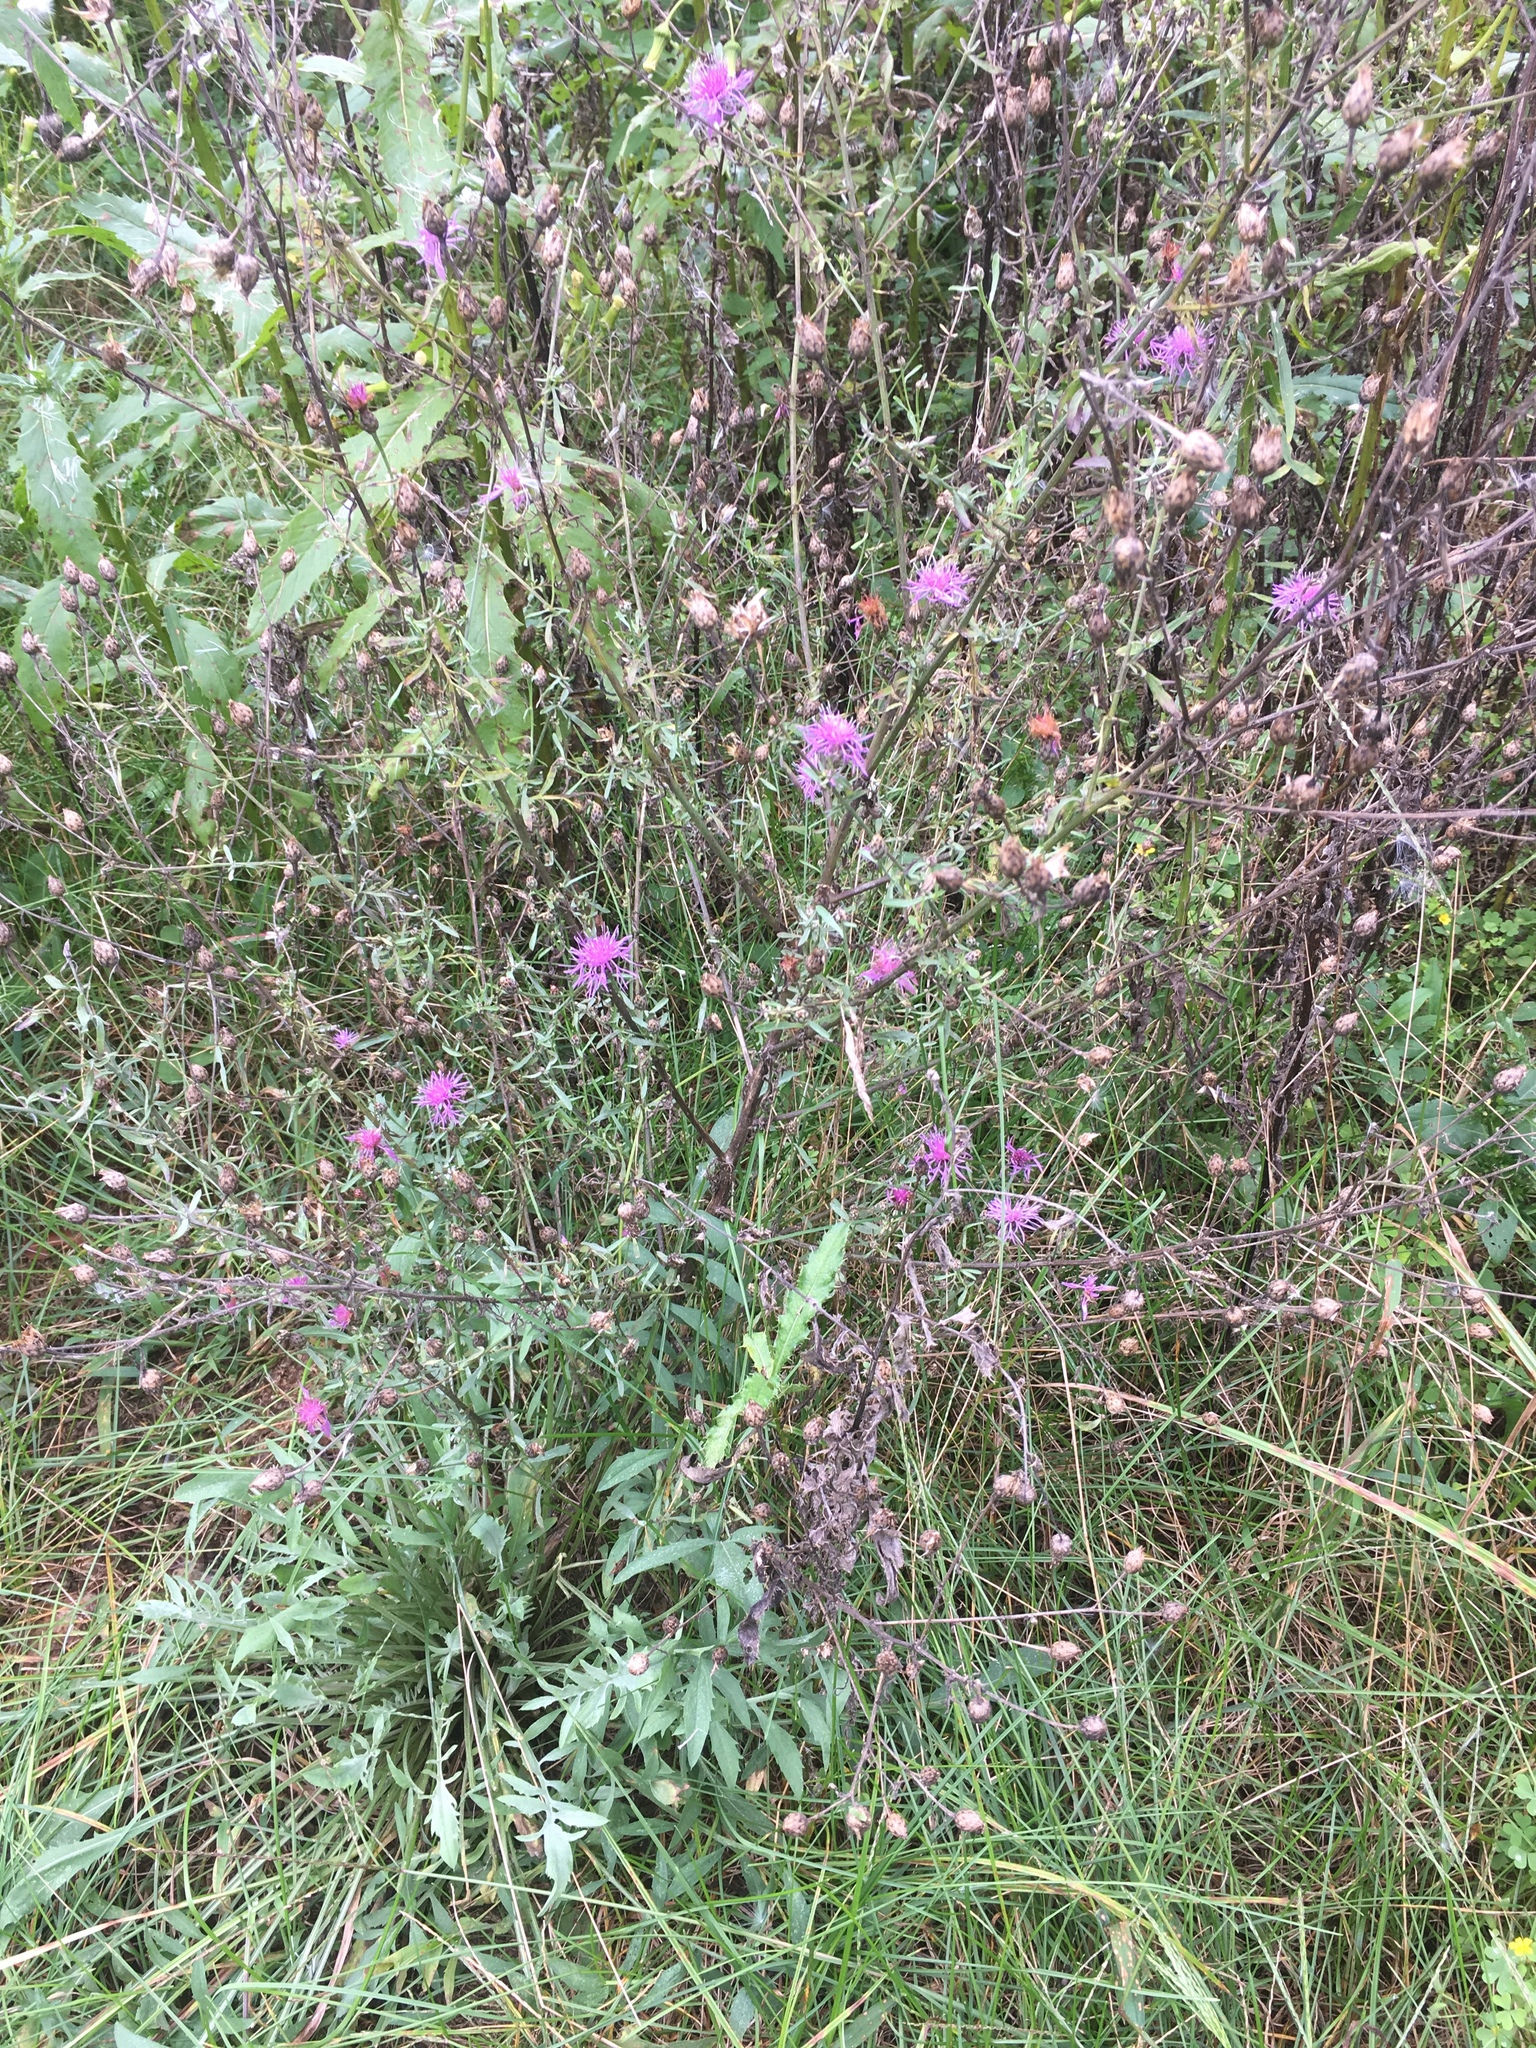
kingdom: Plantae
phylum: Tracheophyta
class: Magnoliopsida
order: Asterales
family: Asteraceae
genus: Centaurea
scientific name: Centaurea stoebe
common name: Spotted knapweed
